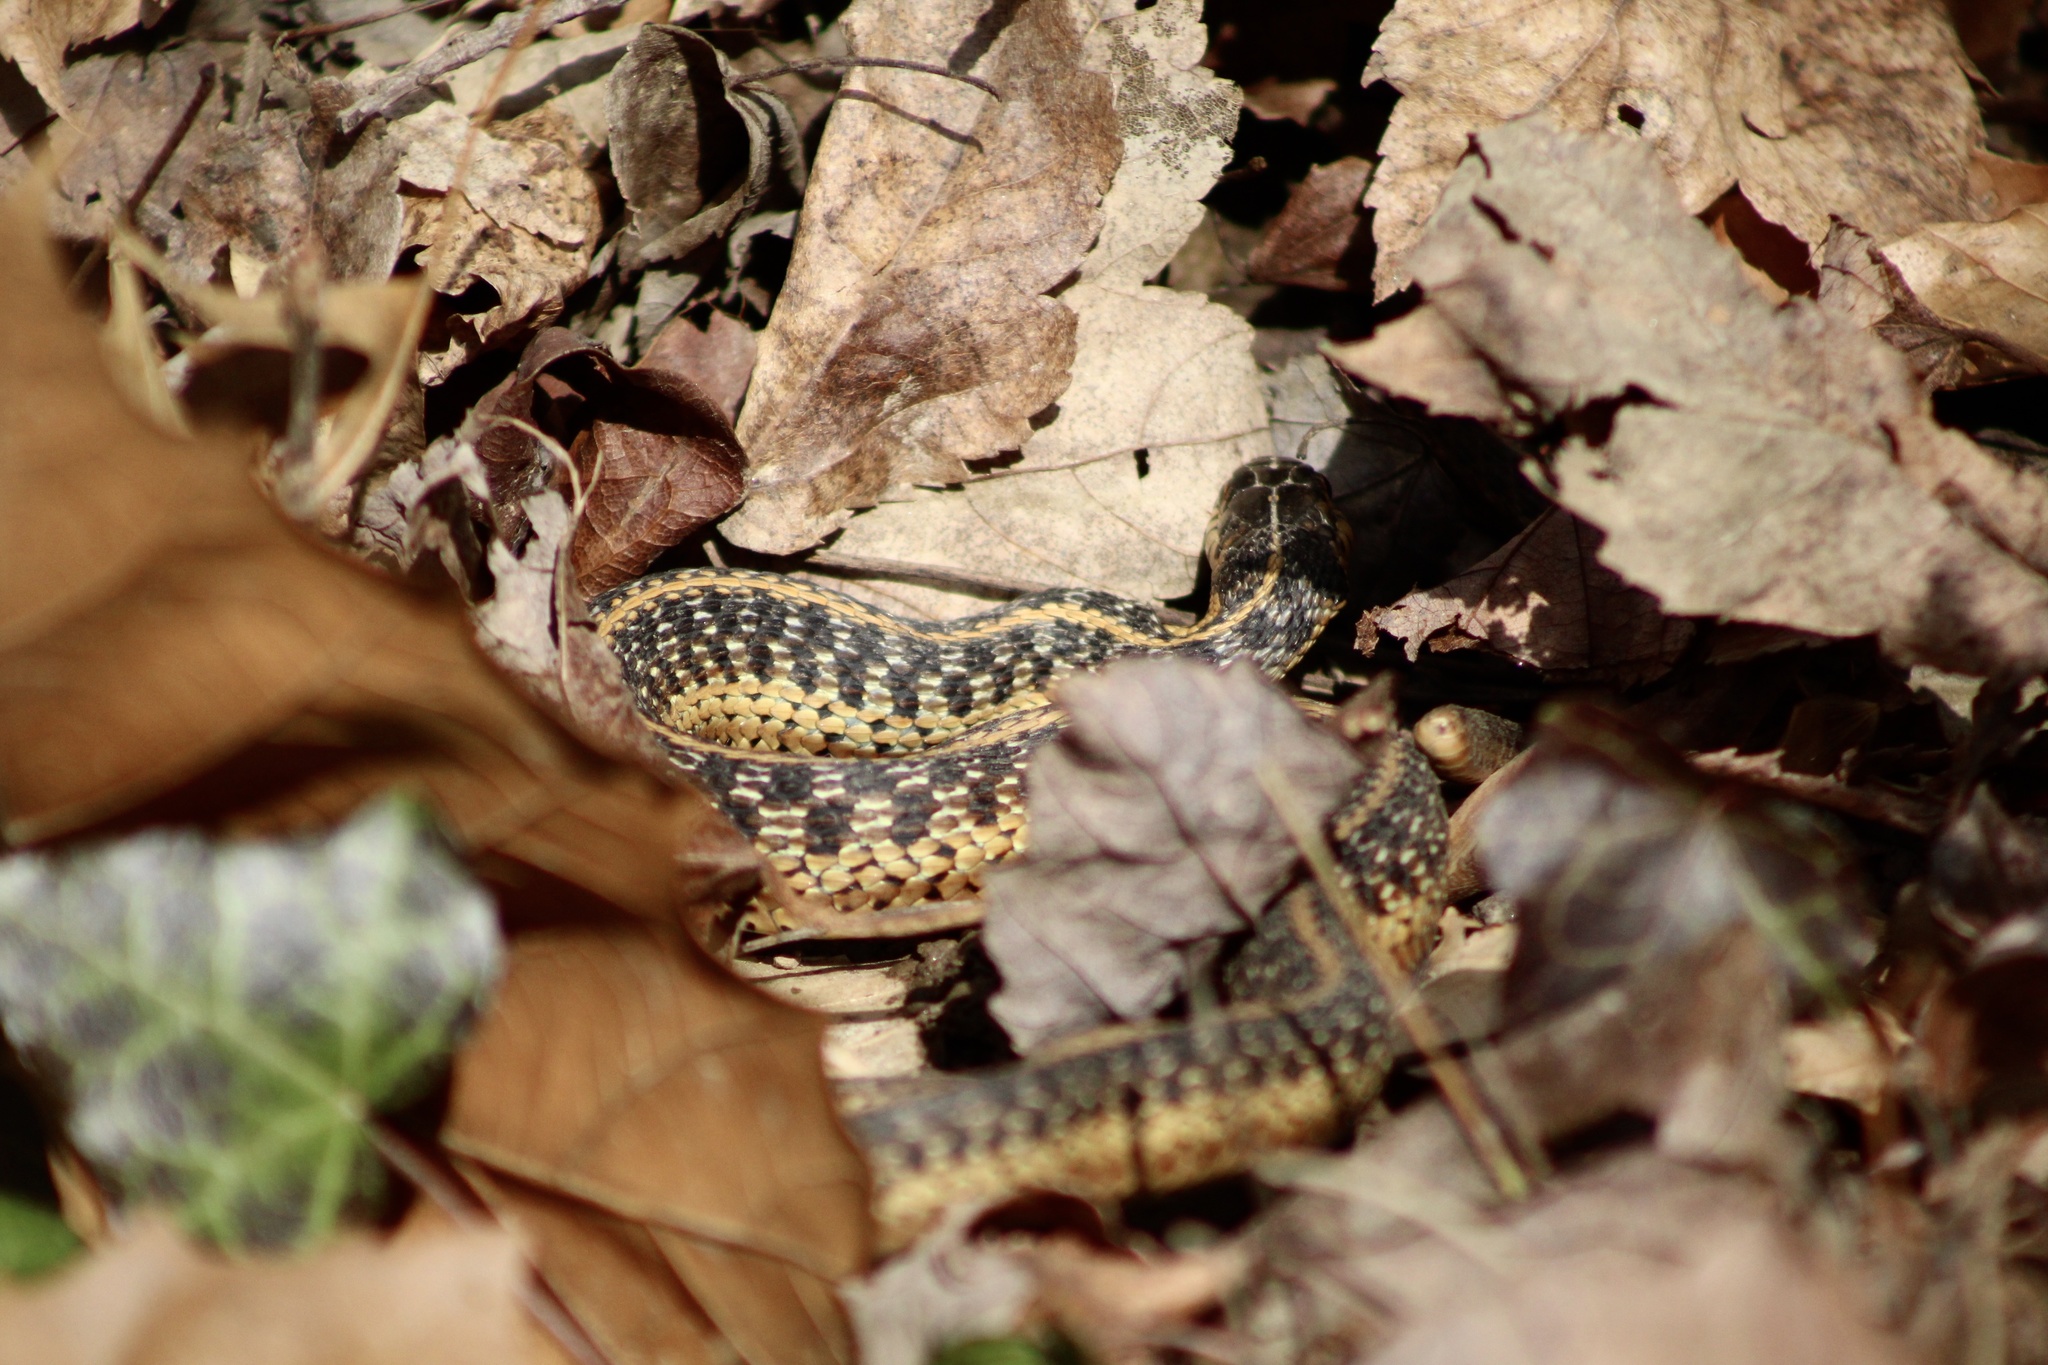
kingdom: Animalia
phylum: Chordata
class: Squamata
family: Colubridae
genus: Thamnophis
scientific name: Thamnophis sirtalis
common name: Common garter snake
